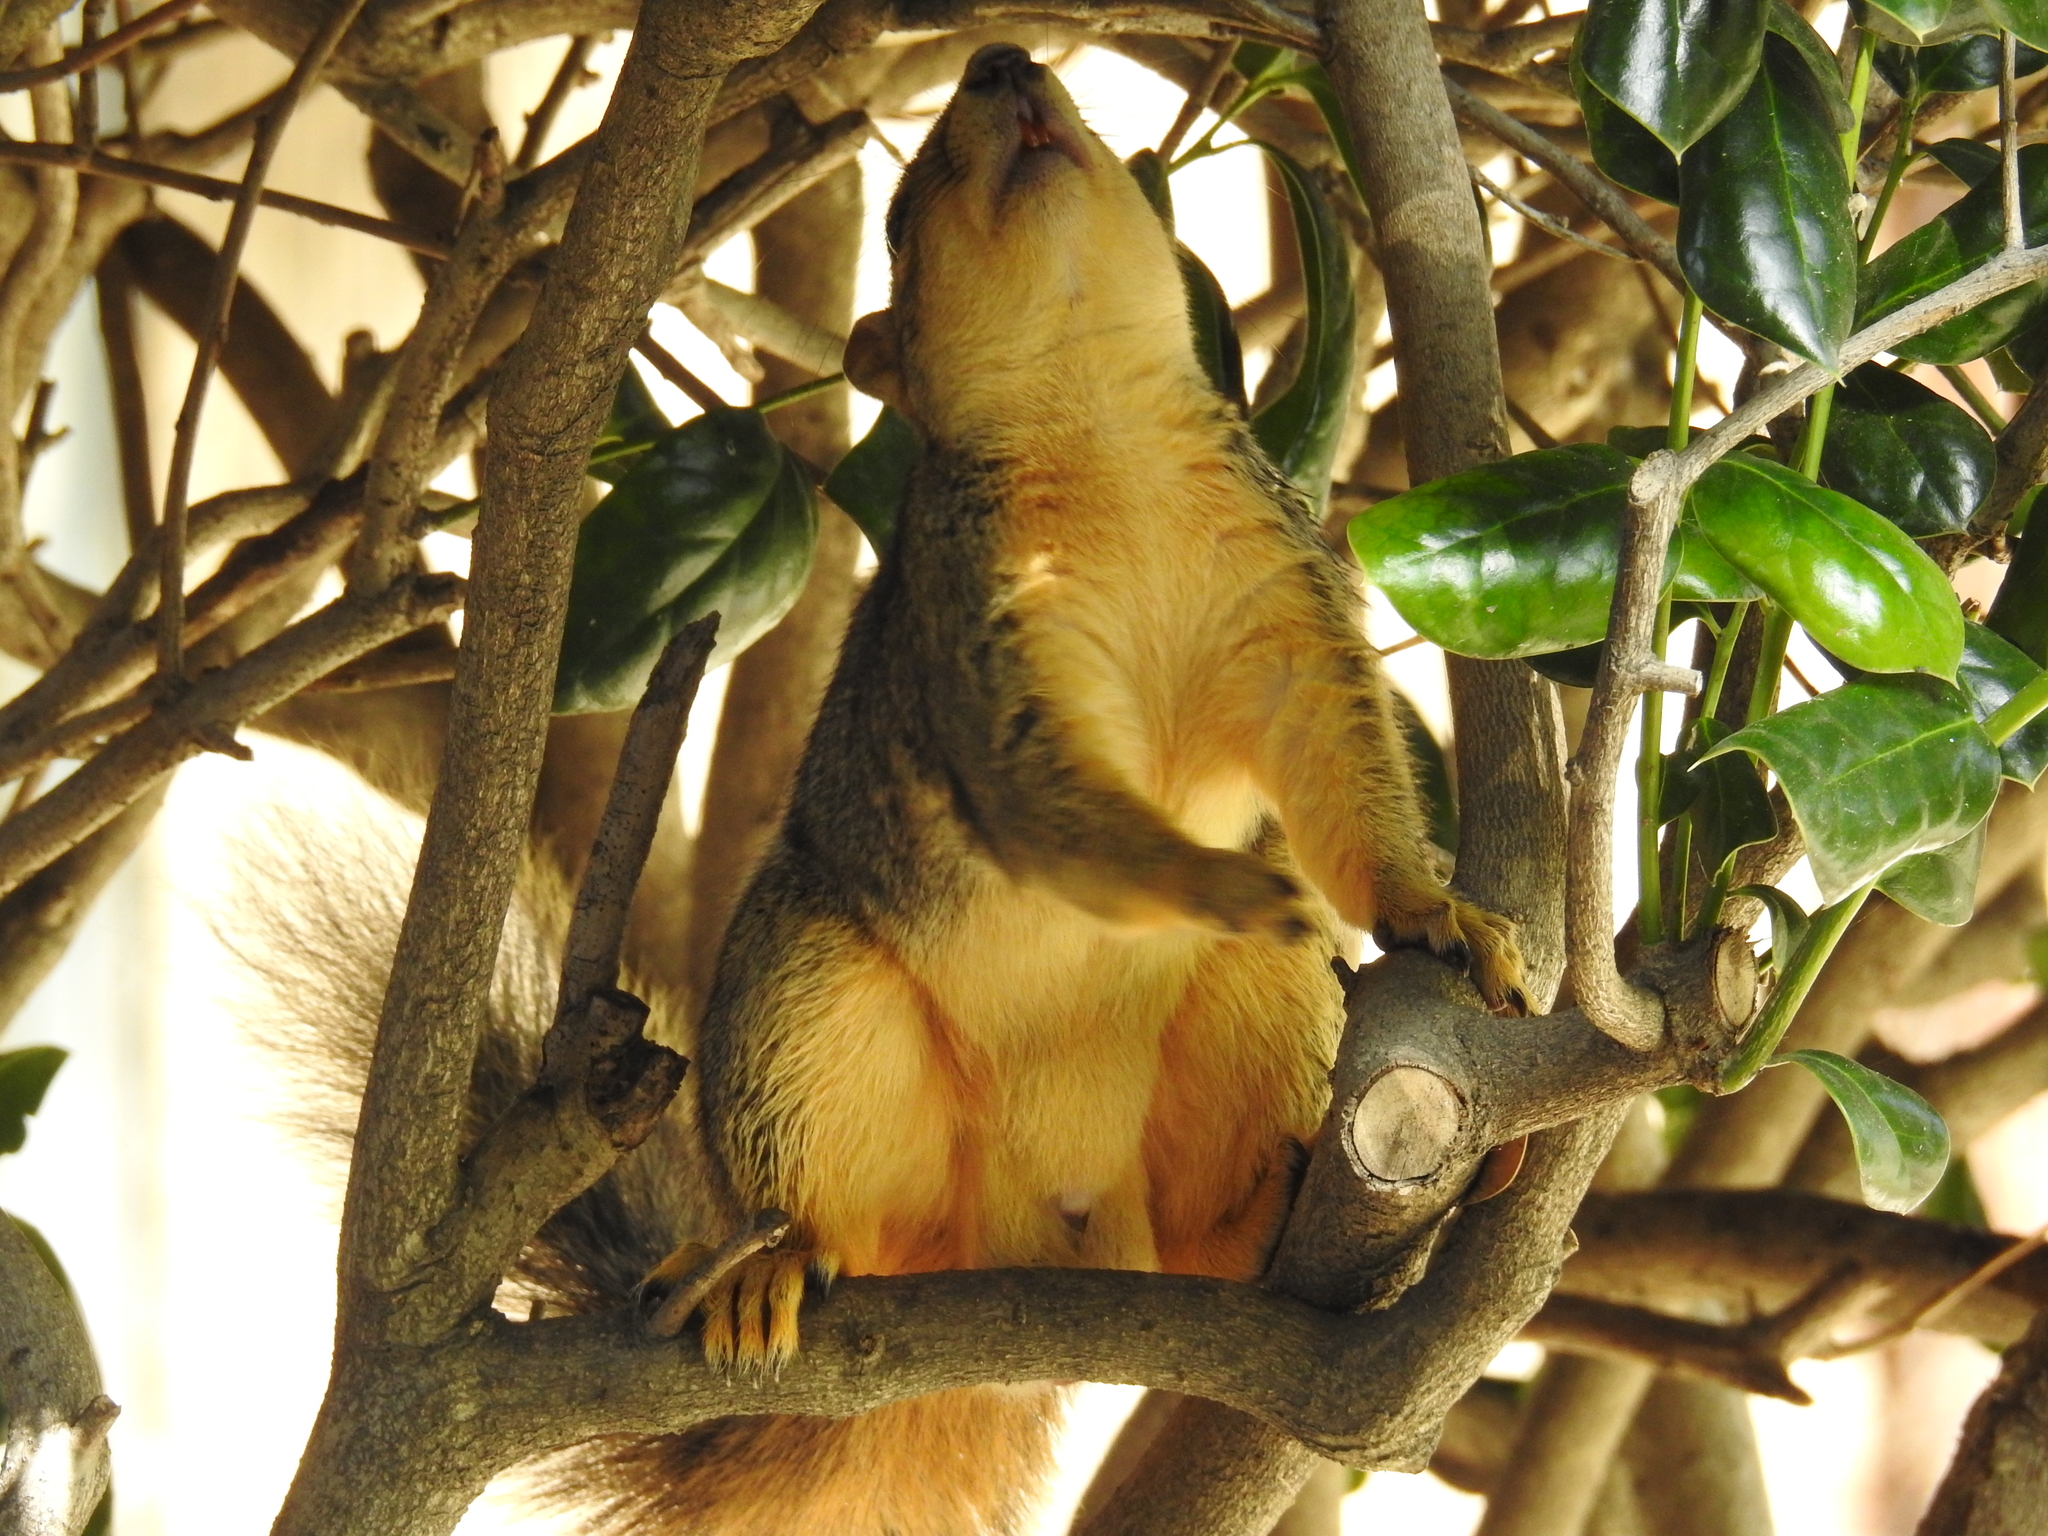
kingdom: Animalia
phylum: Chordata
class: Mammalia
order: Rodentia
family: Sciuridae
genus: Sciurus
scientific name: Sciurus niger
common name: Fox squirrel
